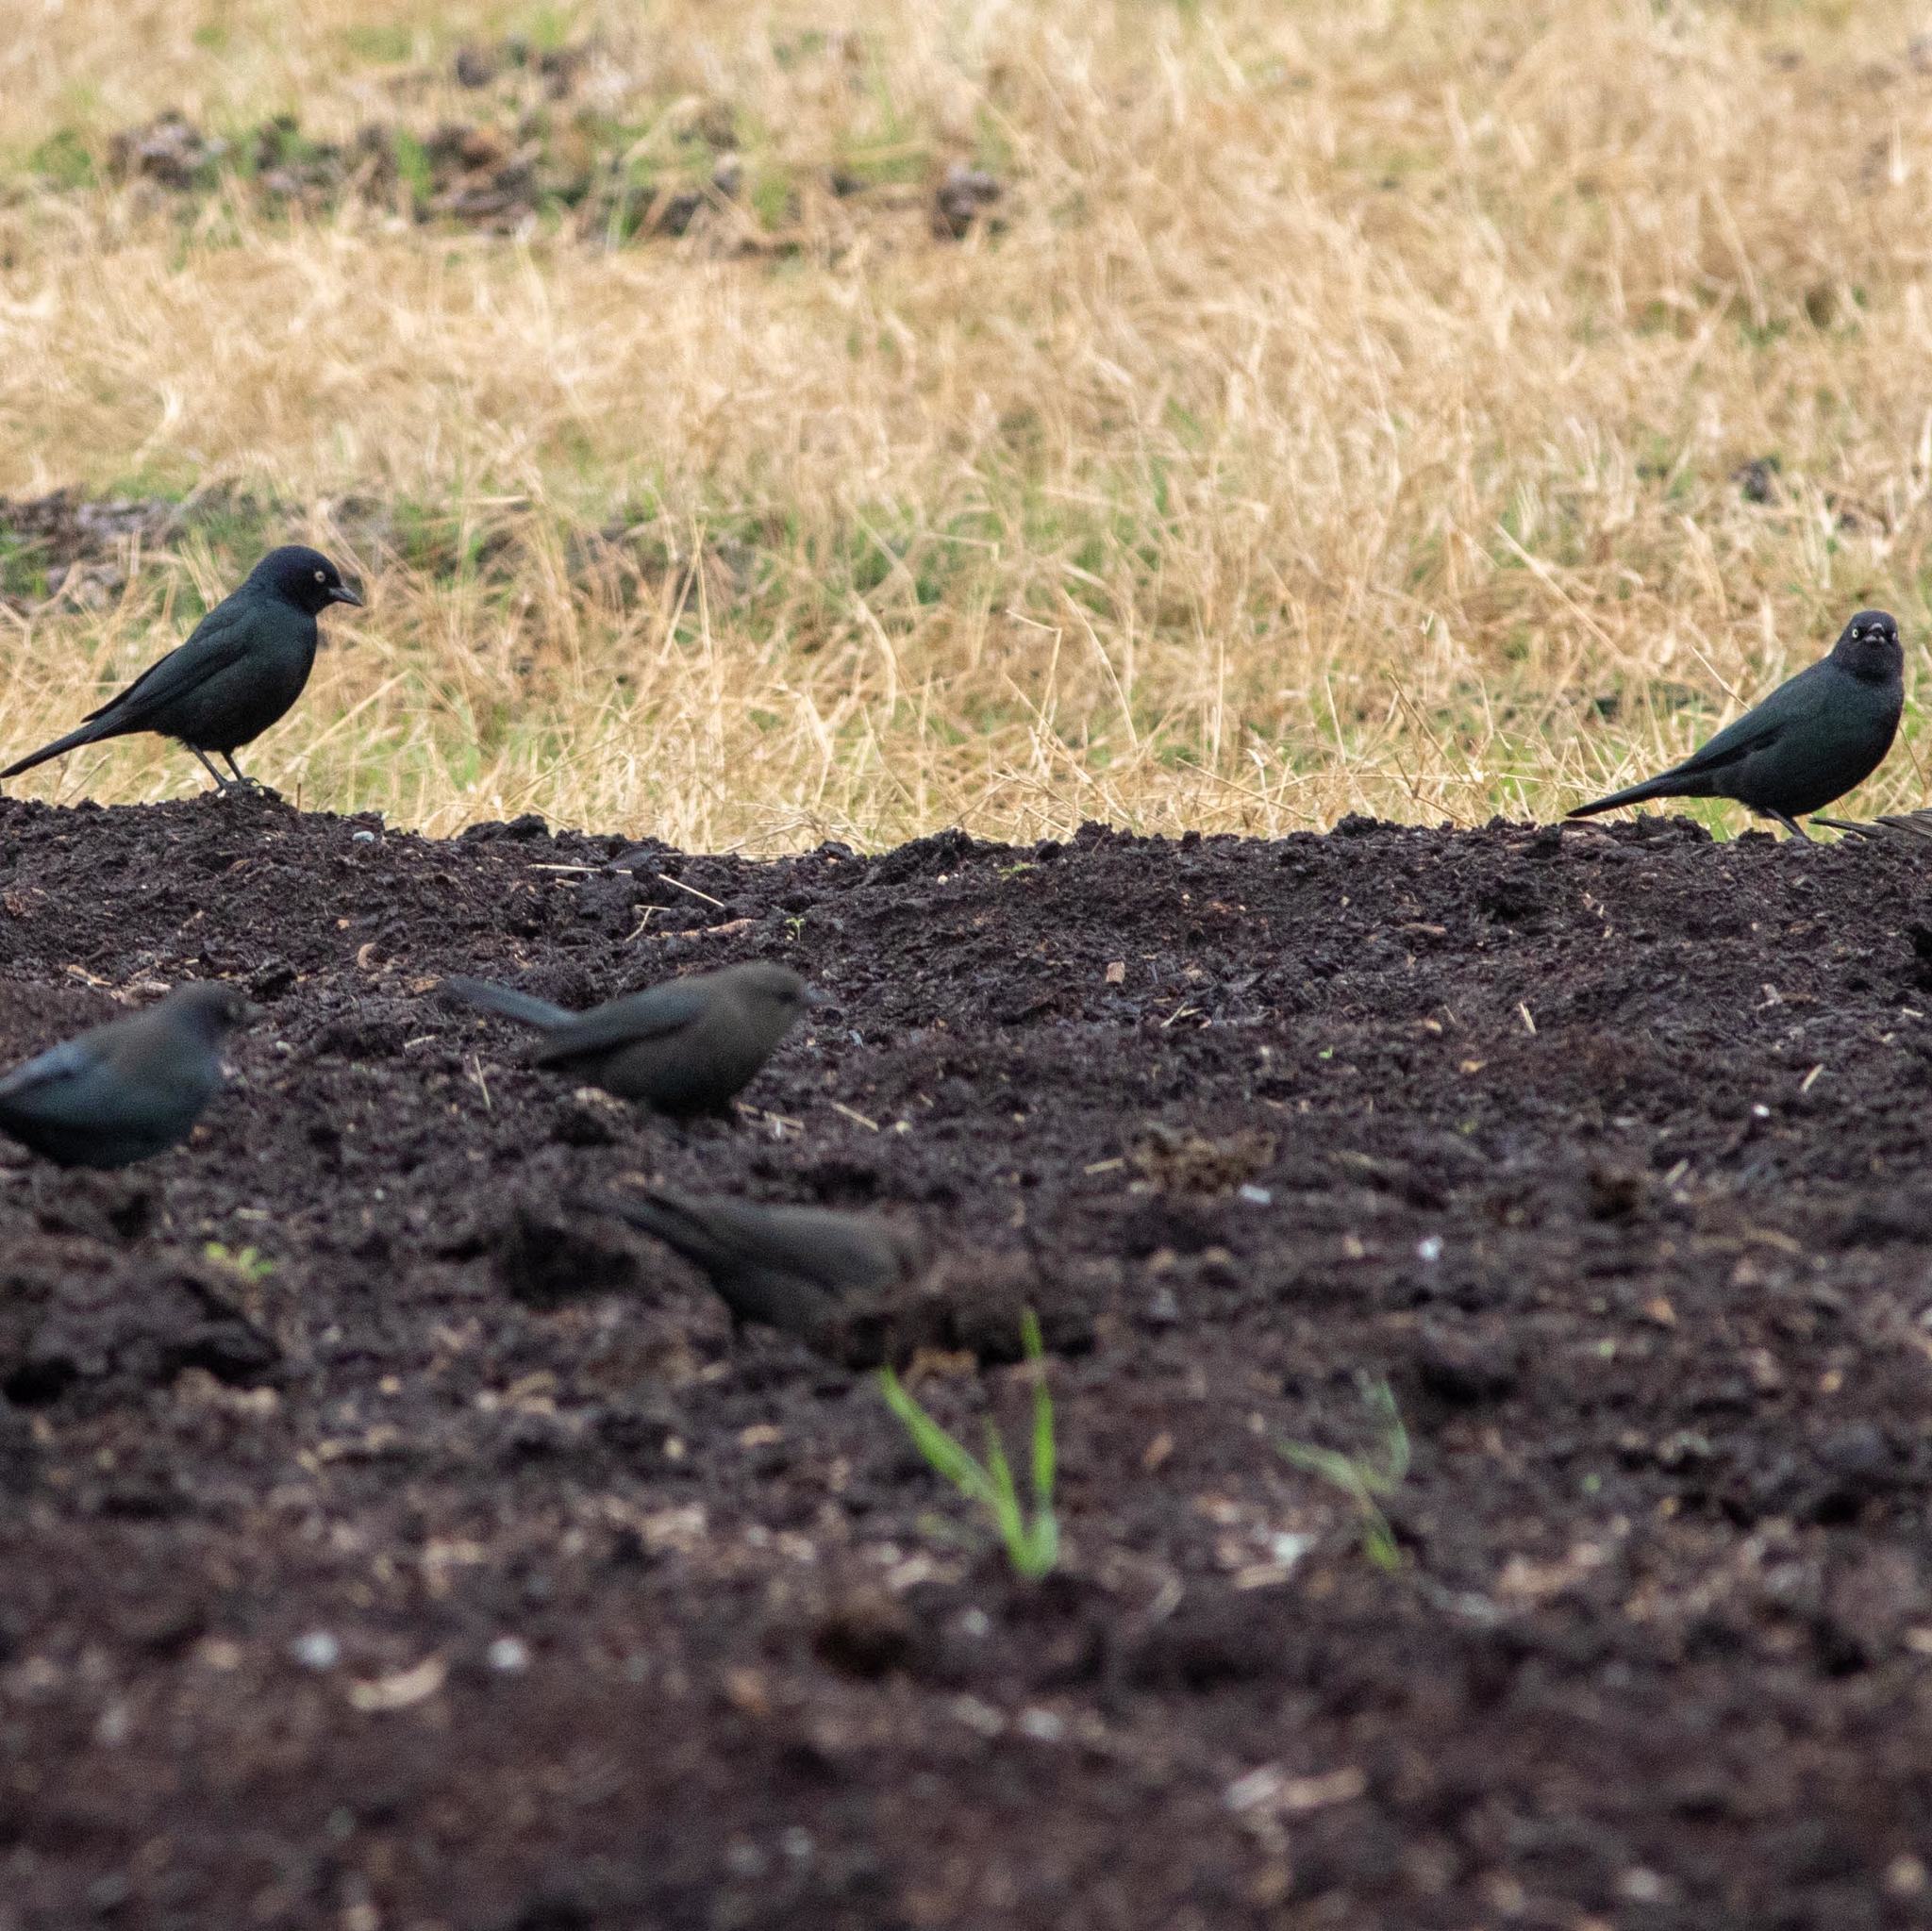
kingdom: Animalia
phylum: Chordata
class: Aves
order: Passeriformes
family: Icteridae
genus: Euphagus
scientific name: Euphagus cyanocephalus
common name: Brewer's blackbird
